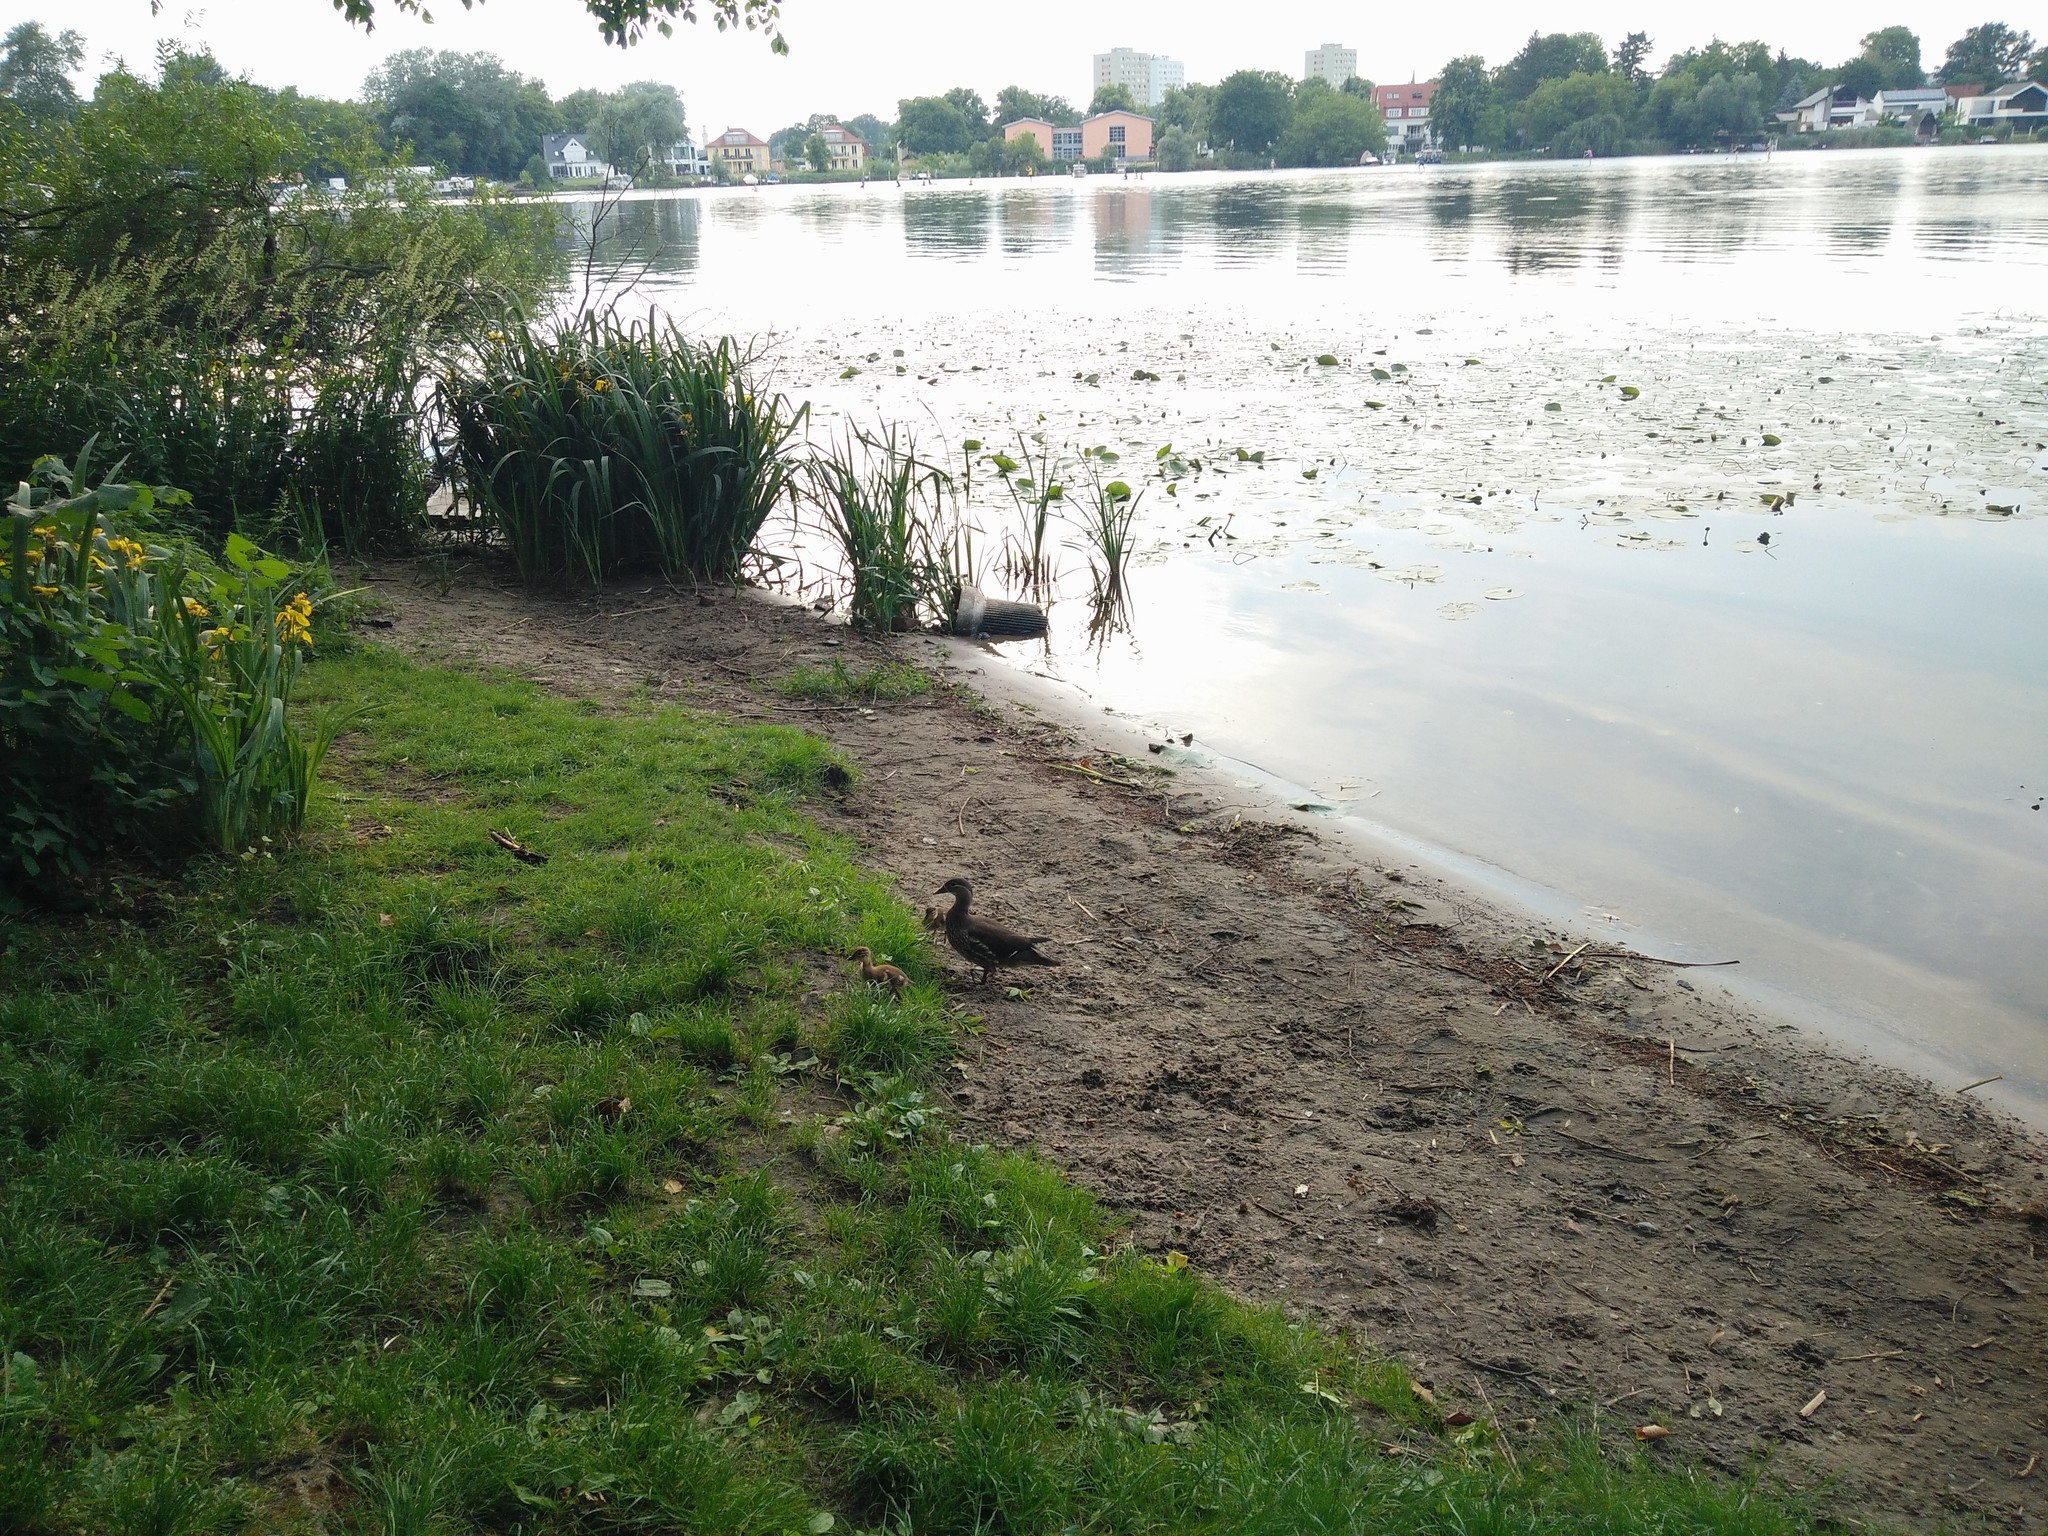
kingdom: Animalia
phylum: Chordata
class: Aves
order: Anseriformes
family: Anatidae
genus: Aix
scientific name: Aix galericulata
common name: Mandarin duck
